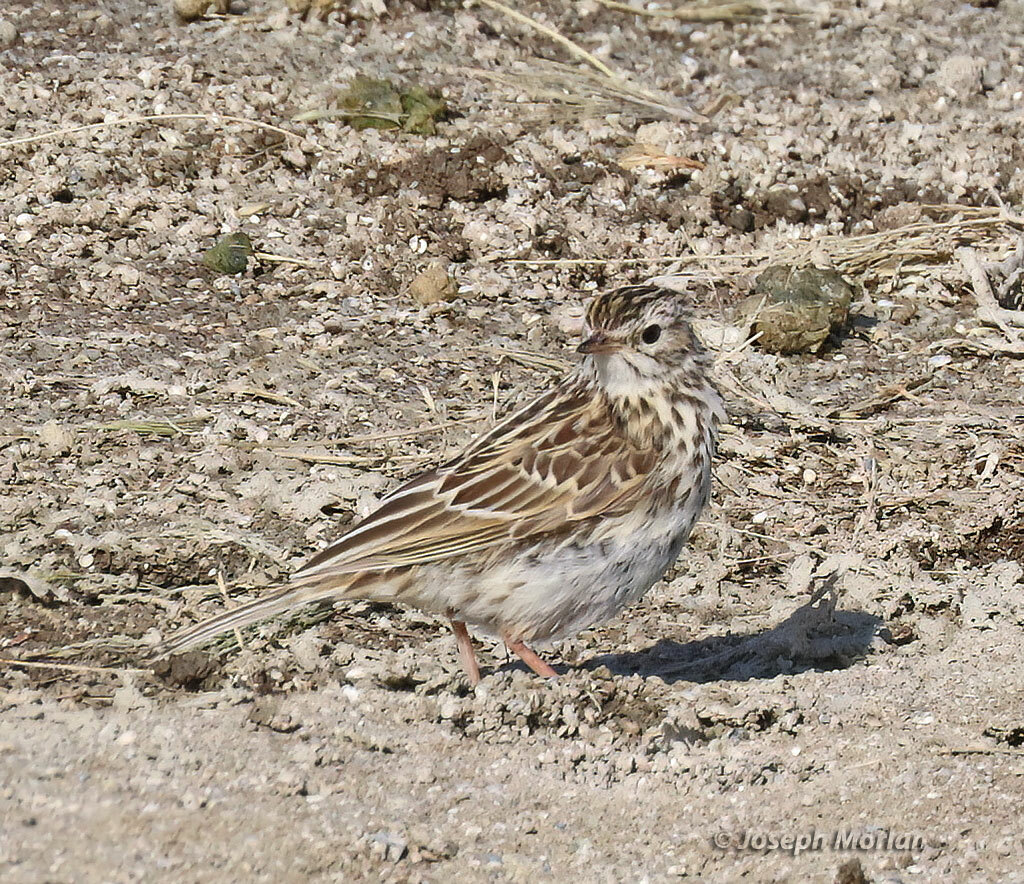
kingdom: Animalia
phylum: Chordata
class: Aves
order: Passeriformes
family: Motacillidae
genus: Anthus
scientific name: Anthus correndera
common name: Correndera pipit
